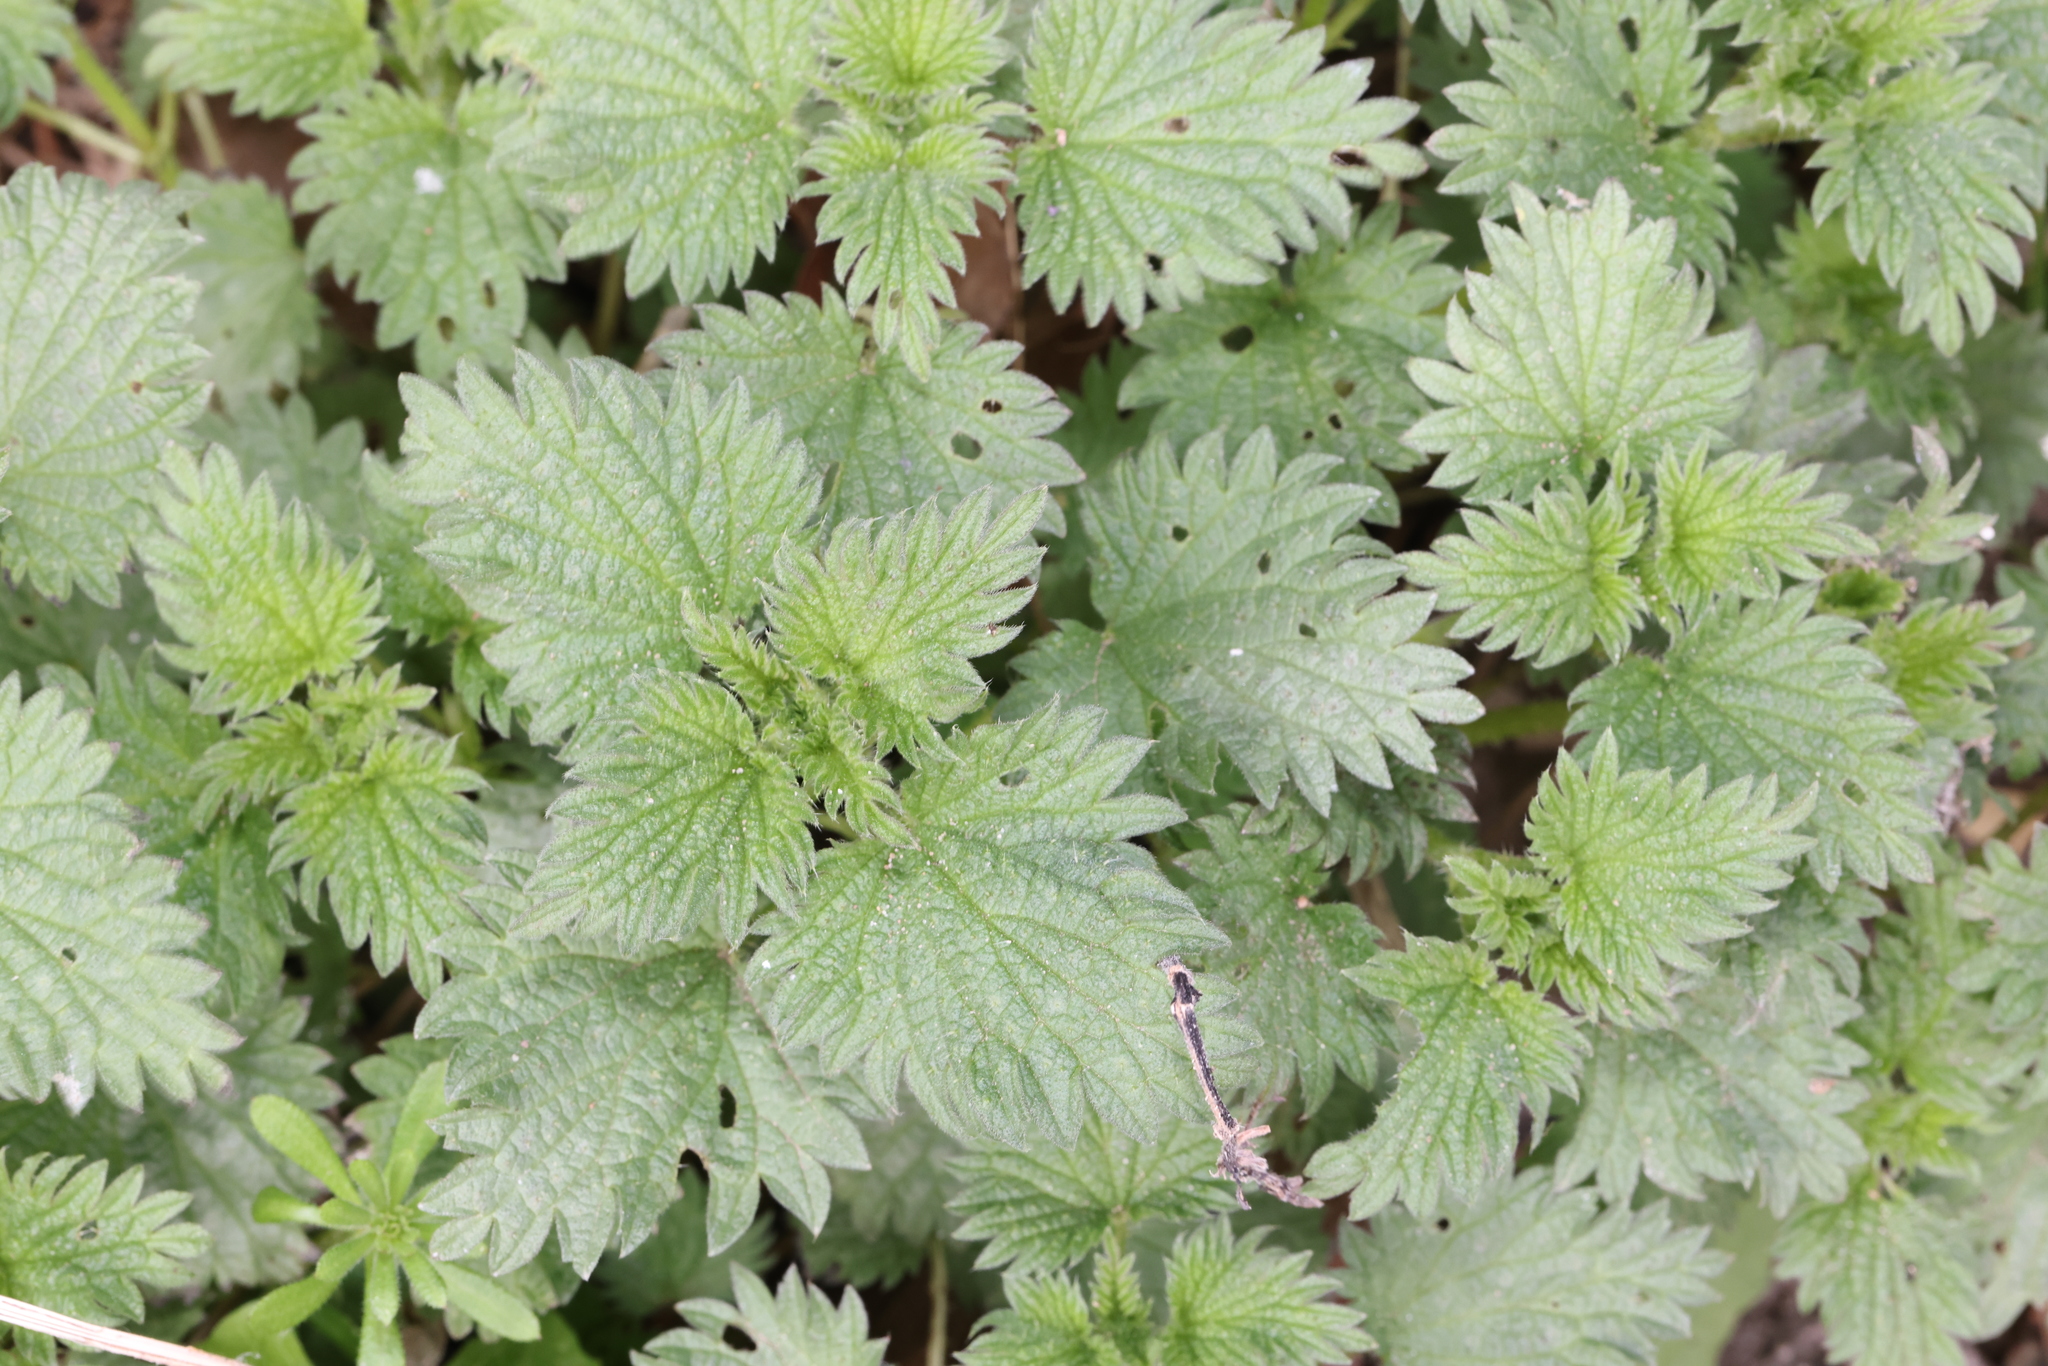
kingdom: Plantae
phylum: Tracheophyta
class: Magnoliopsida
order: Rosales
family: Urticaceae
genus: Urtica
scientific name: Urtica dioica
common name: Common nettle
